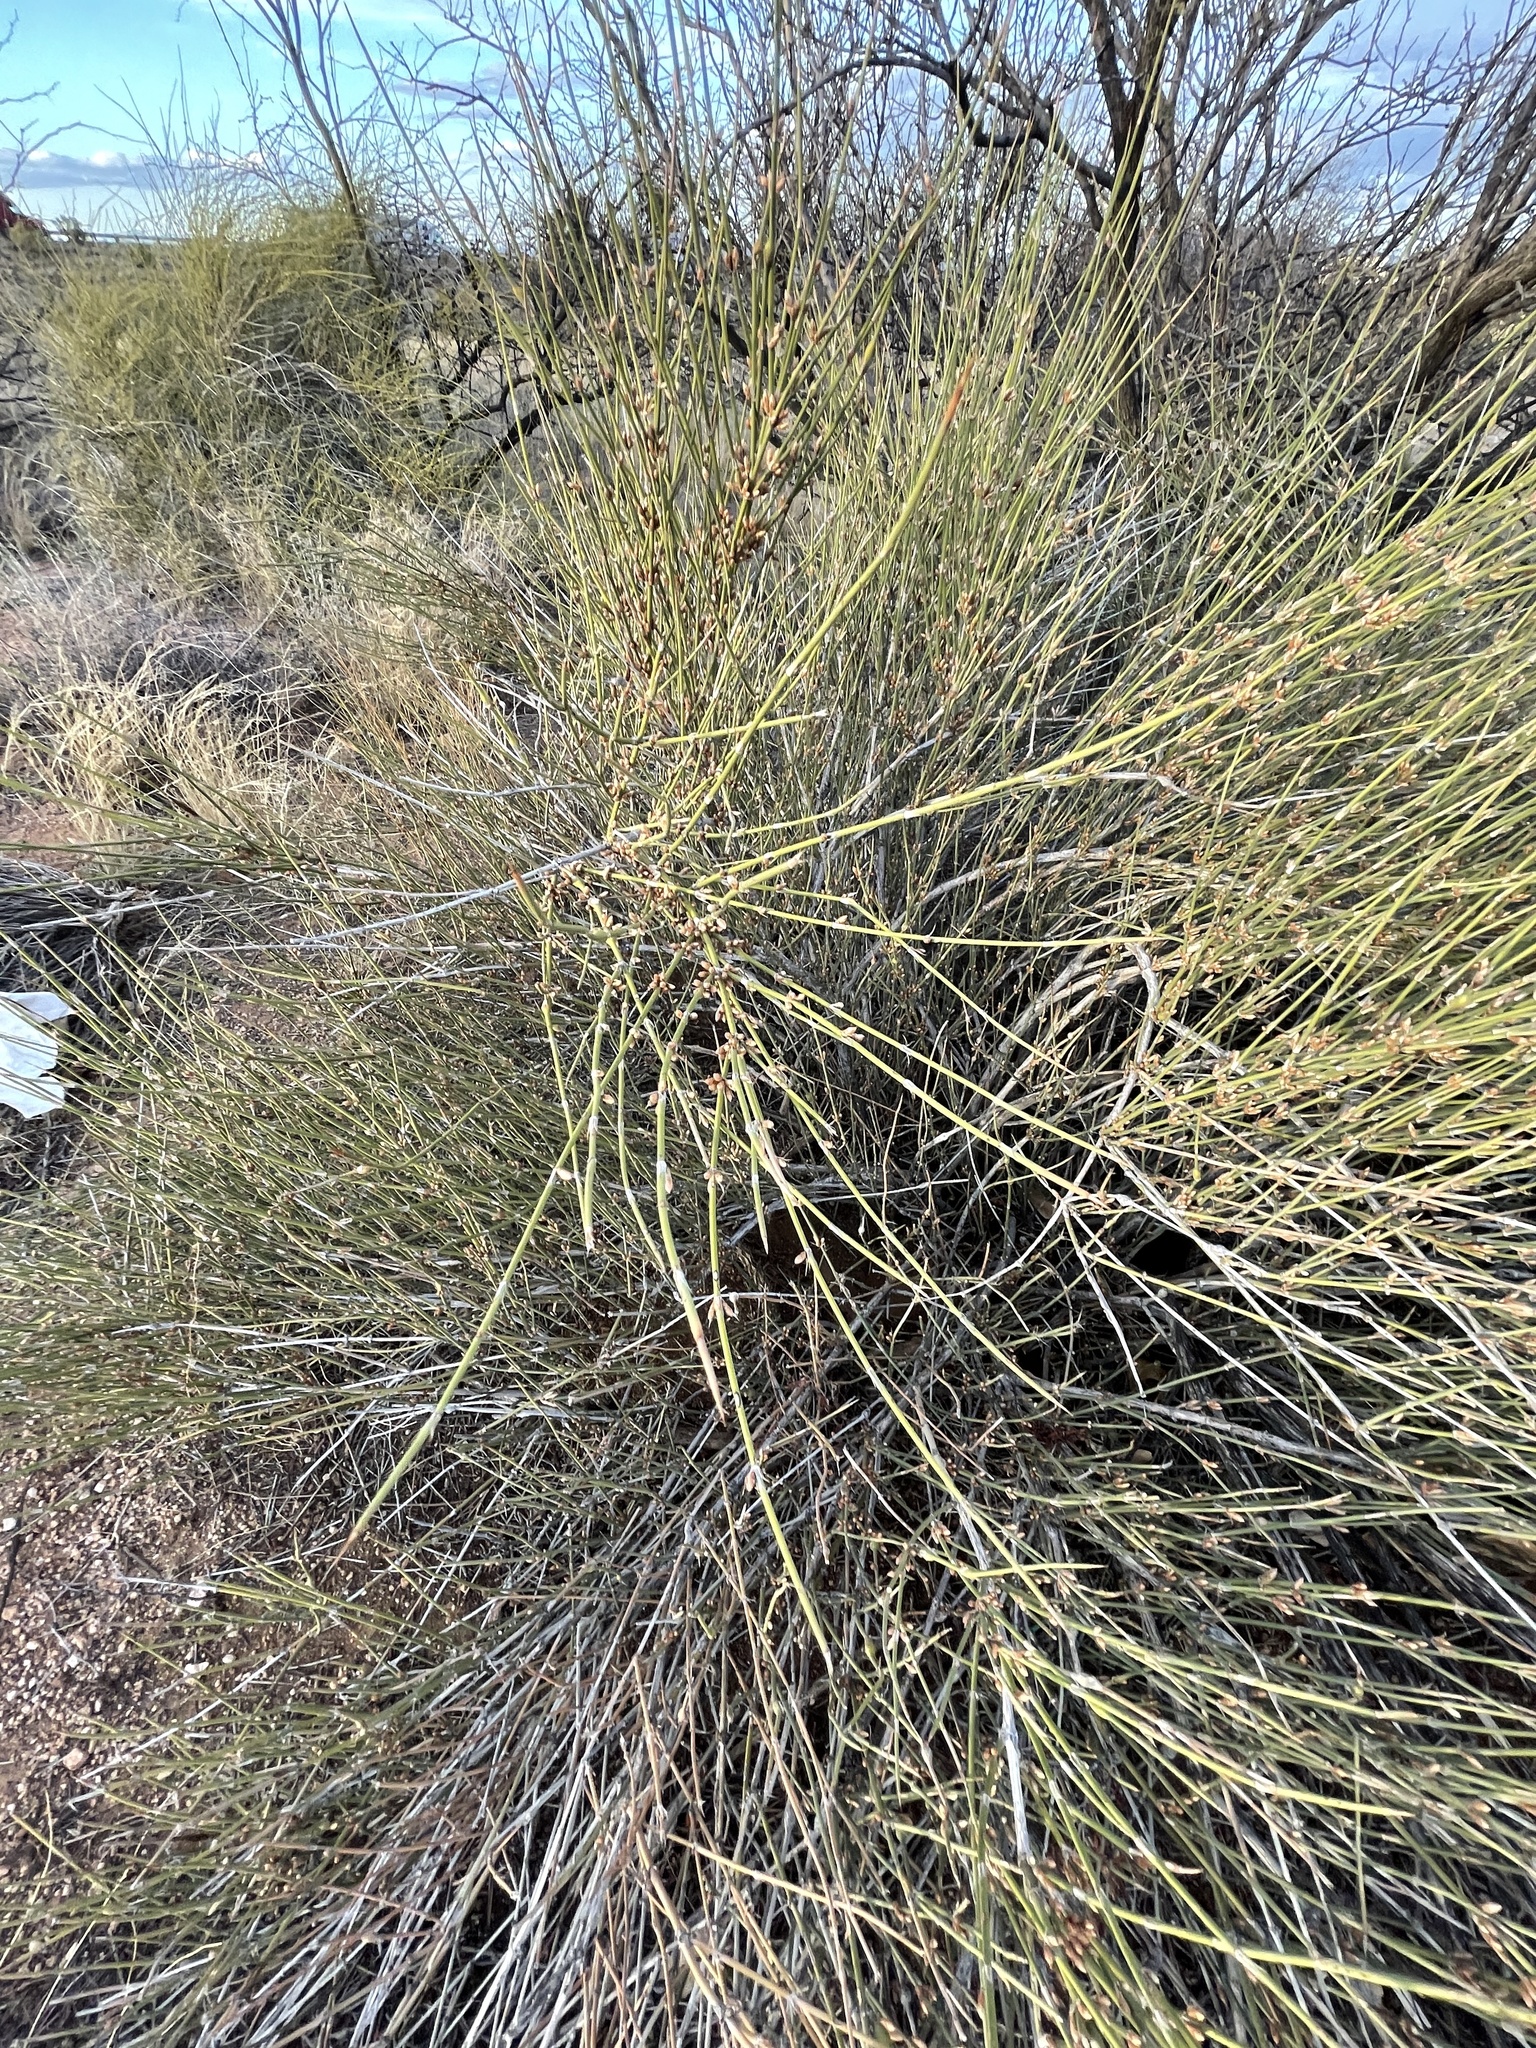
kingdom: Plantae
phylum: Tracheophyta
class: Gnetopsida
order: Ephedrales
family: Ephedraceae
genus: Ephedra
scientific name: Ephedra trifurca
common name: Mexican-tea
